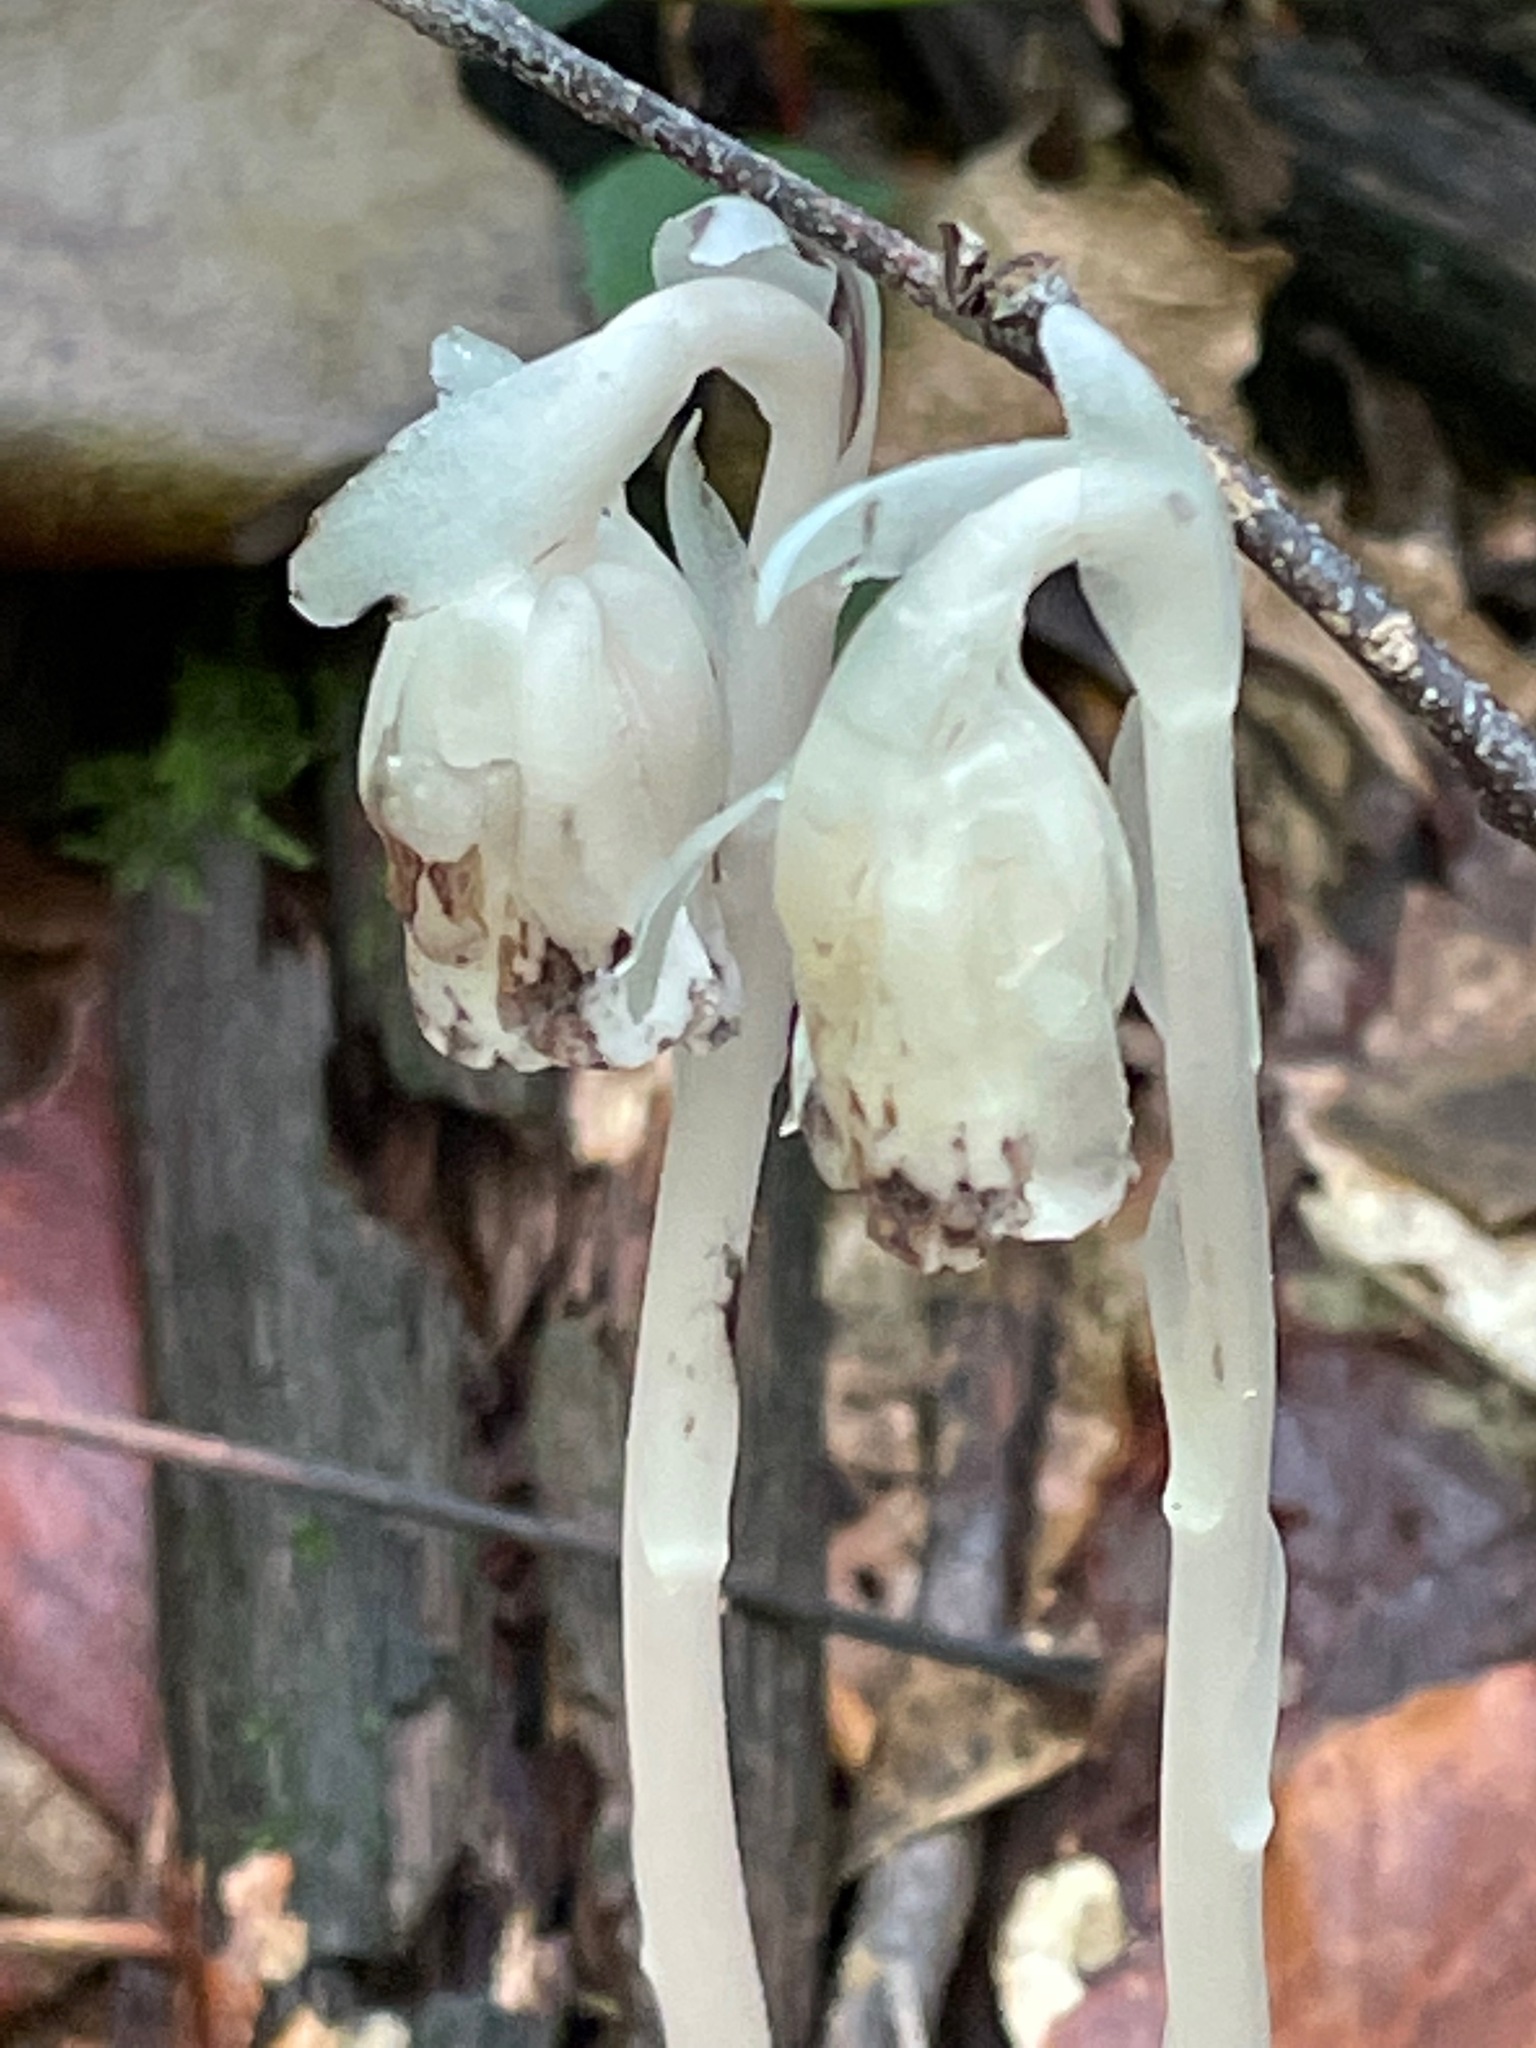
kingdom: Plantae
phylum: Tracheophyta
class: Magnoliopsida
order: Ericales
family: Ericaceae
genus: Monotropa
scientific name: Monotropa uniflora
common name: Convulsion root
